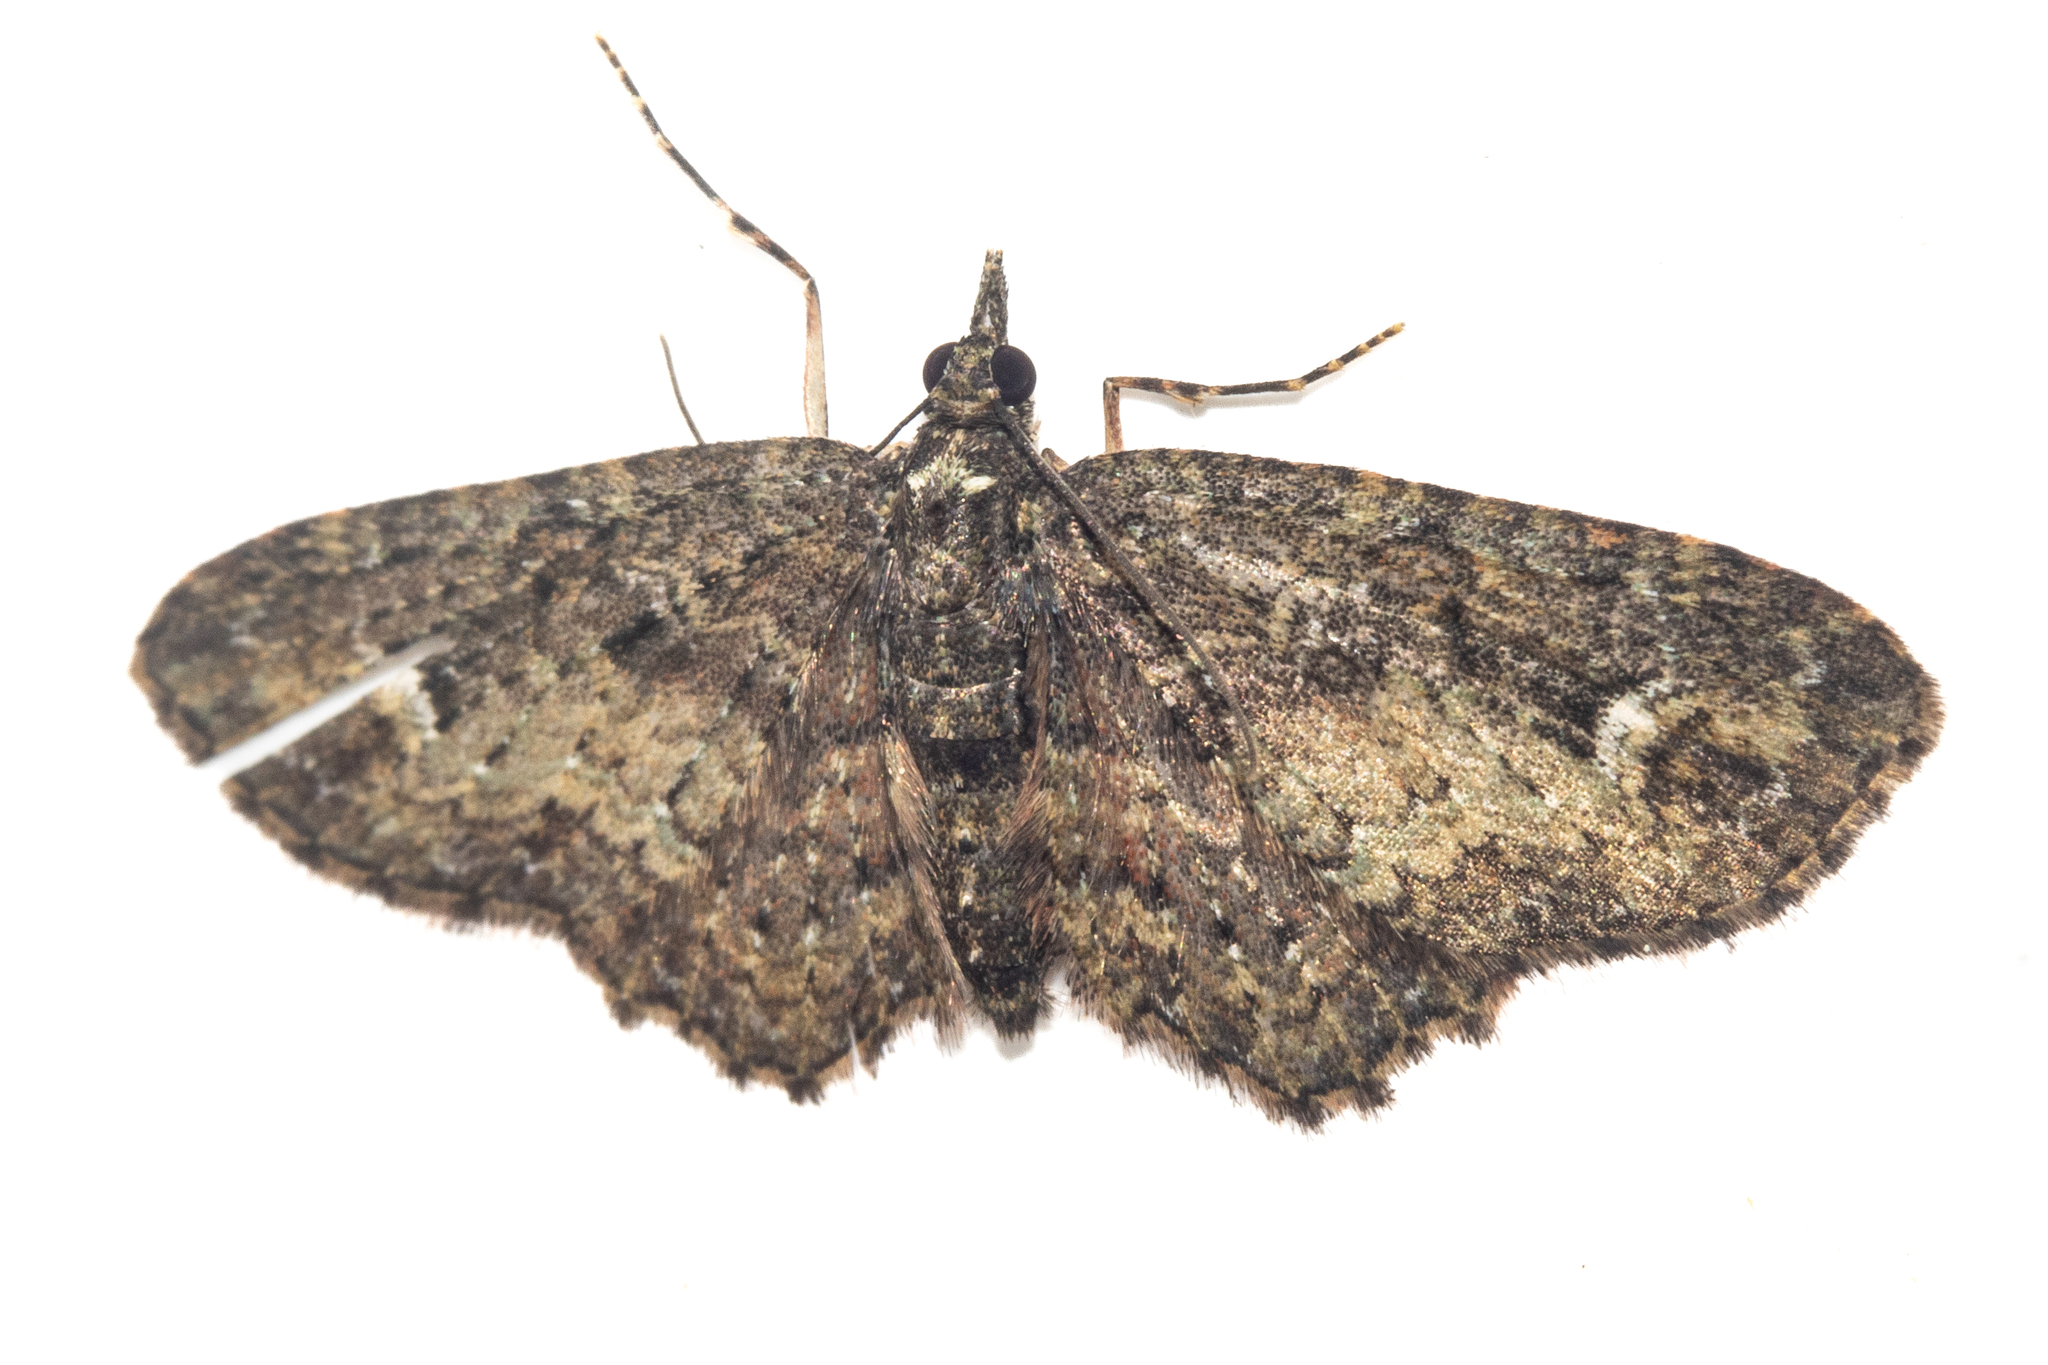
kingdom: Animalia
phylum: Arthropoda
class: Insecta
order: Lepidoptera
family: Geometridae
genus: Pasiphilodes
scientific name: Pasiphilodes testulata
